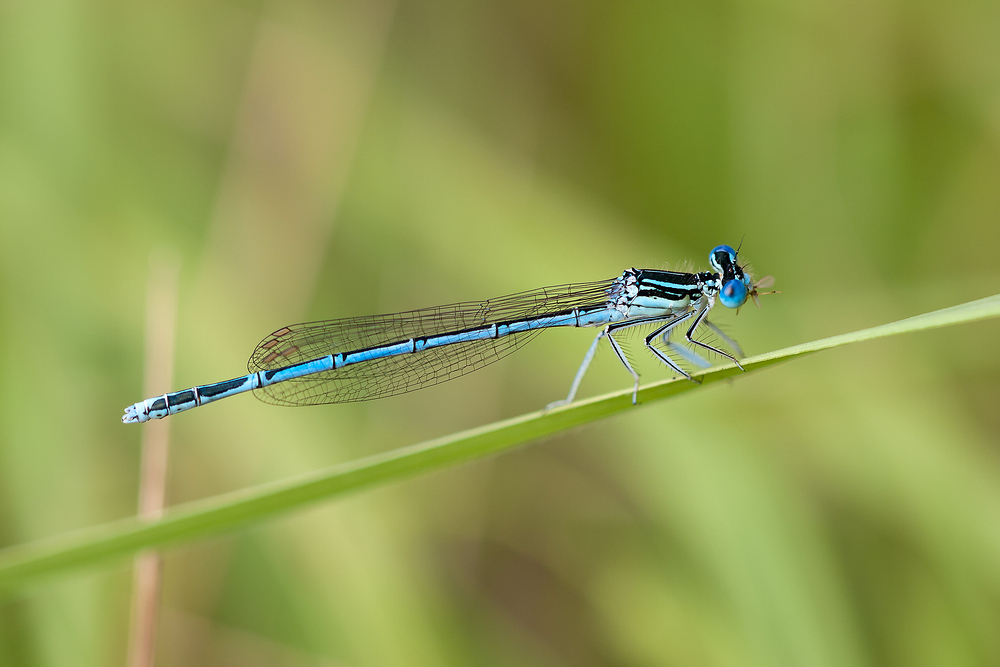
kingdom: Animalia
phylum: Arthropoda
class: Insecta
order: Odonata
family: Platycnemididae
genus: Platycnemis
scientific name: Platycnemis pennipes
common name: White-legged damselfly
